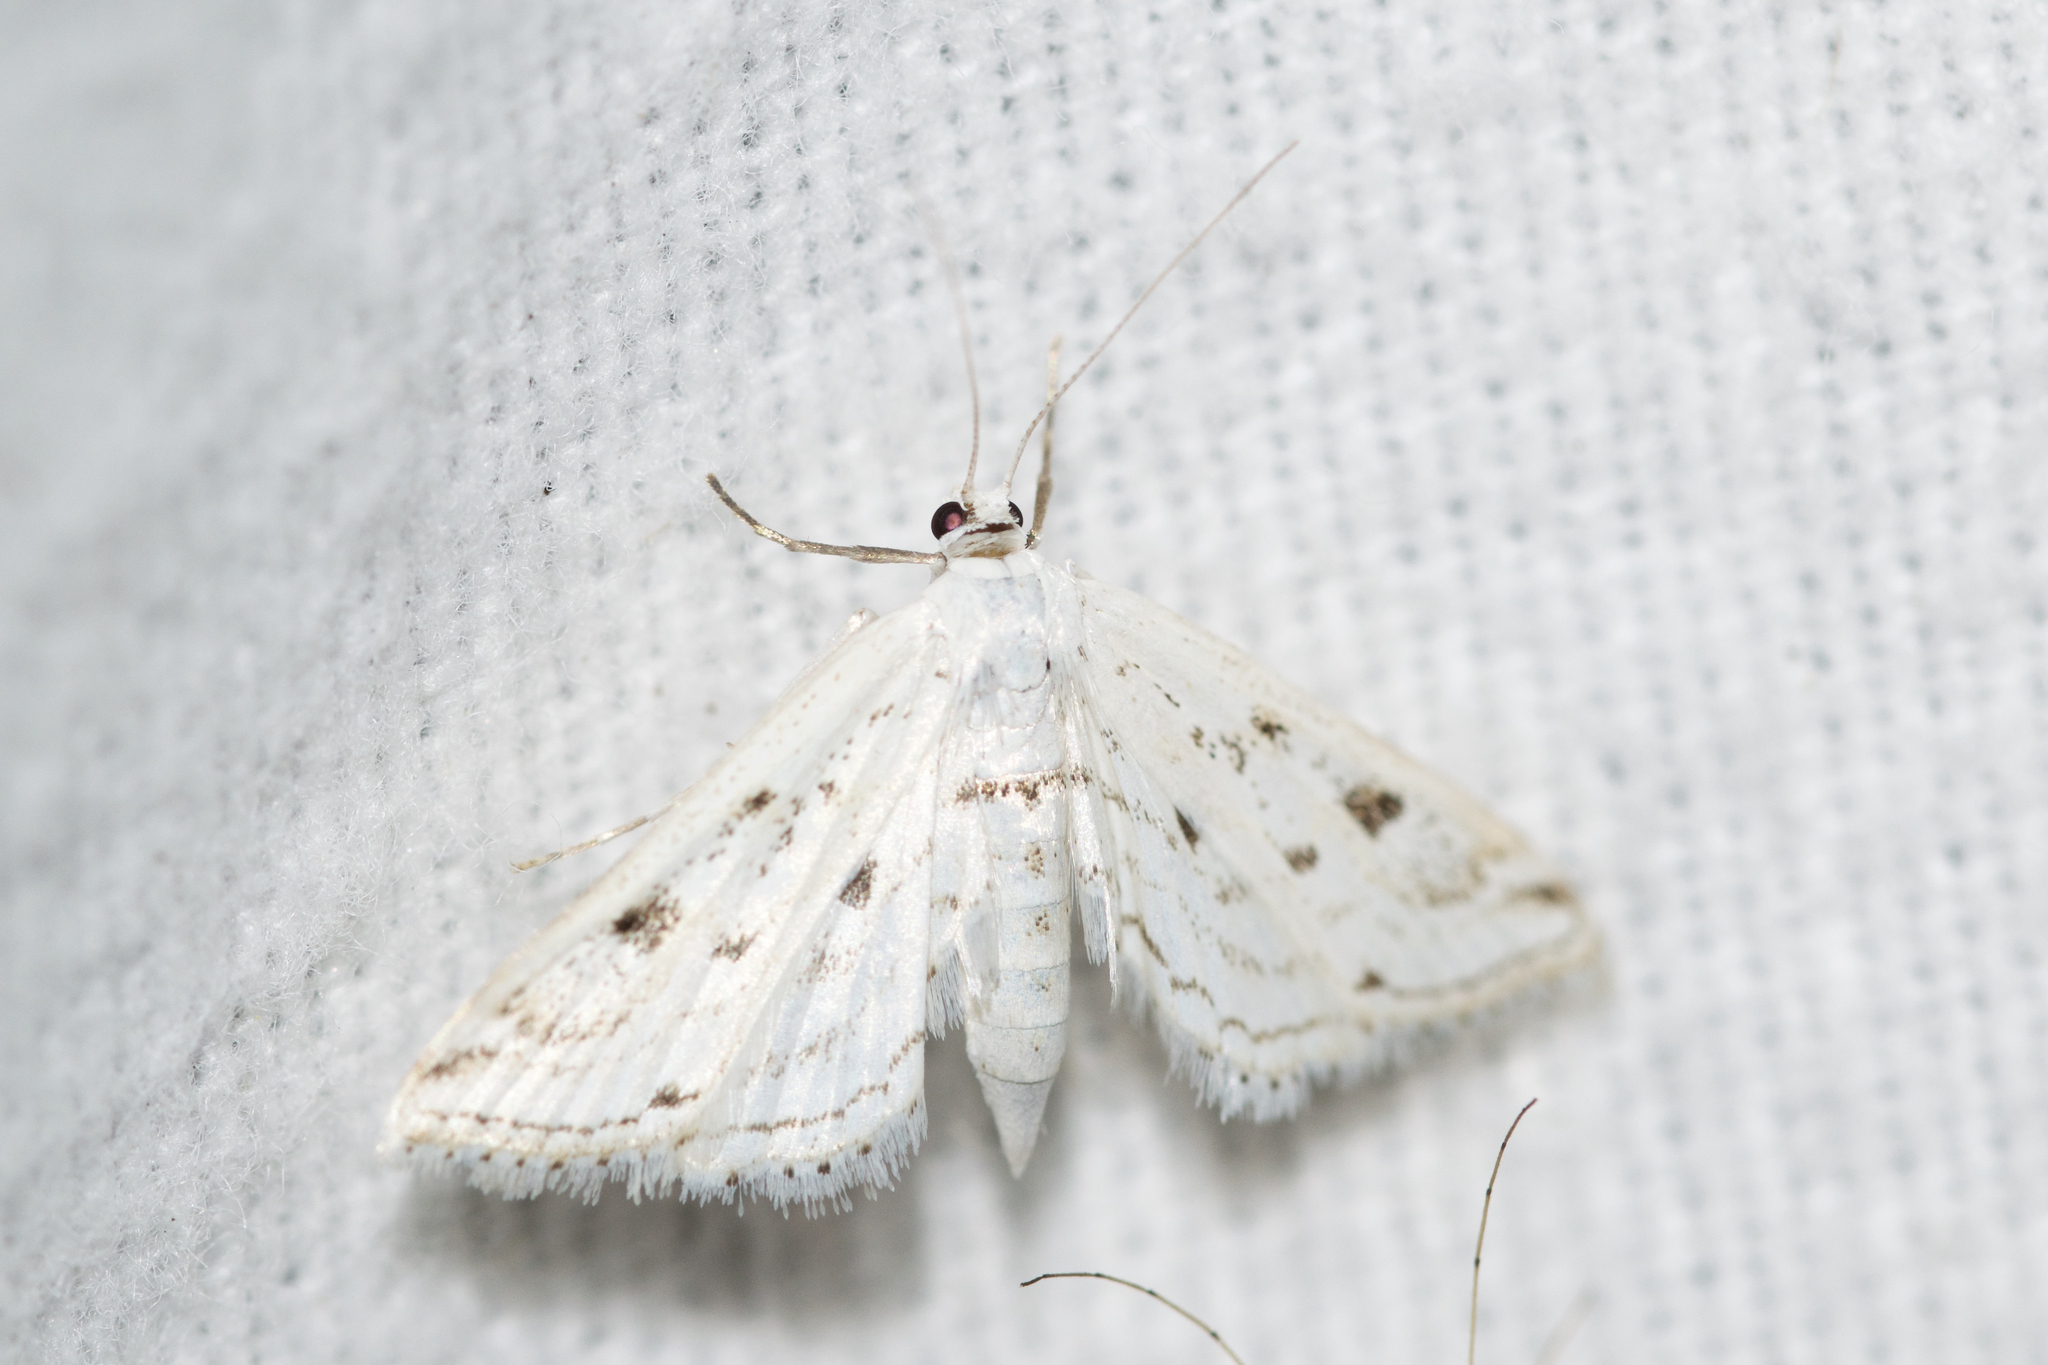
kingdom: Animalia
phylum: Arthropoda
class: Insecta
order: Lepidoptera
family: Crambidae
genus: Parapoynx
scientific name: Parapoynx allionealis
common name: Bladderwort casemaker
